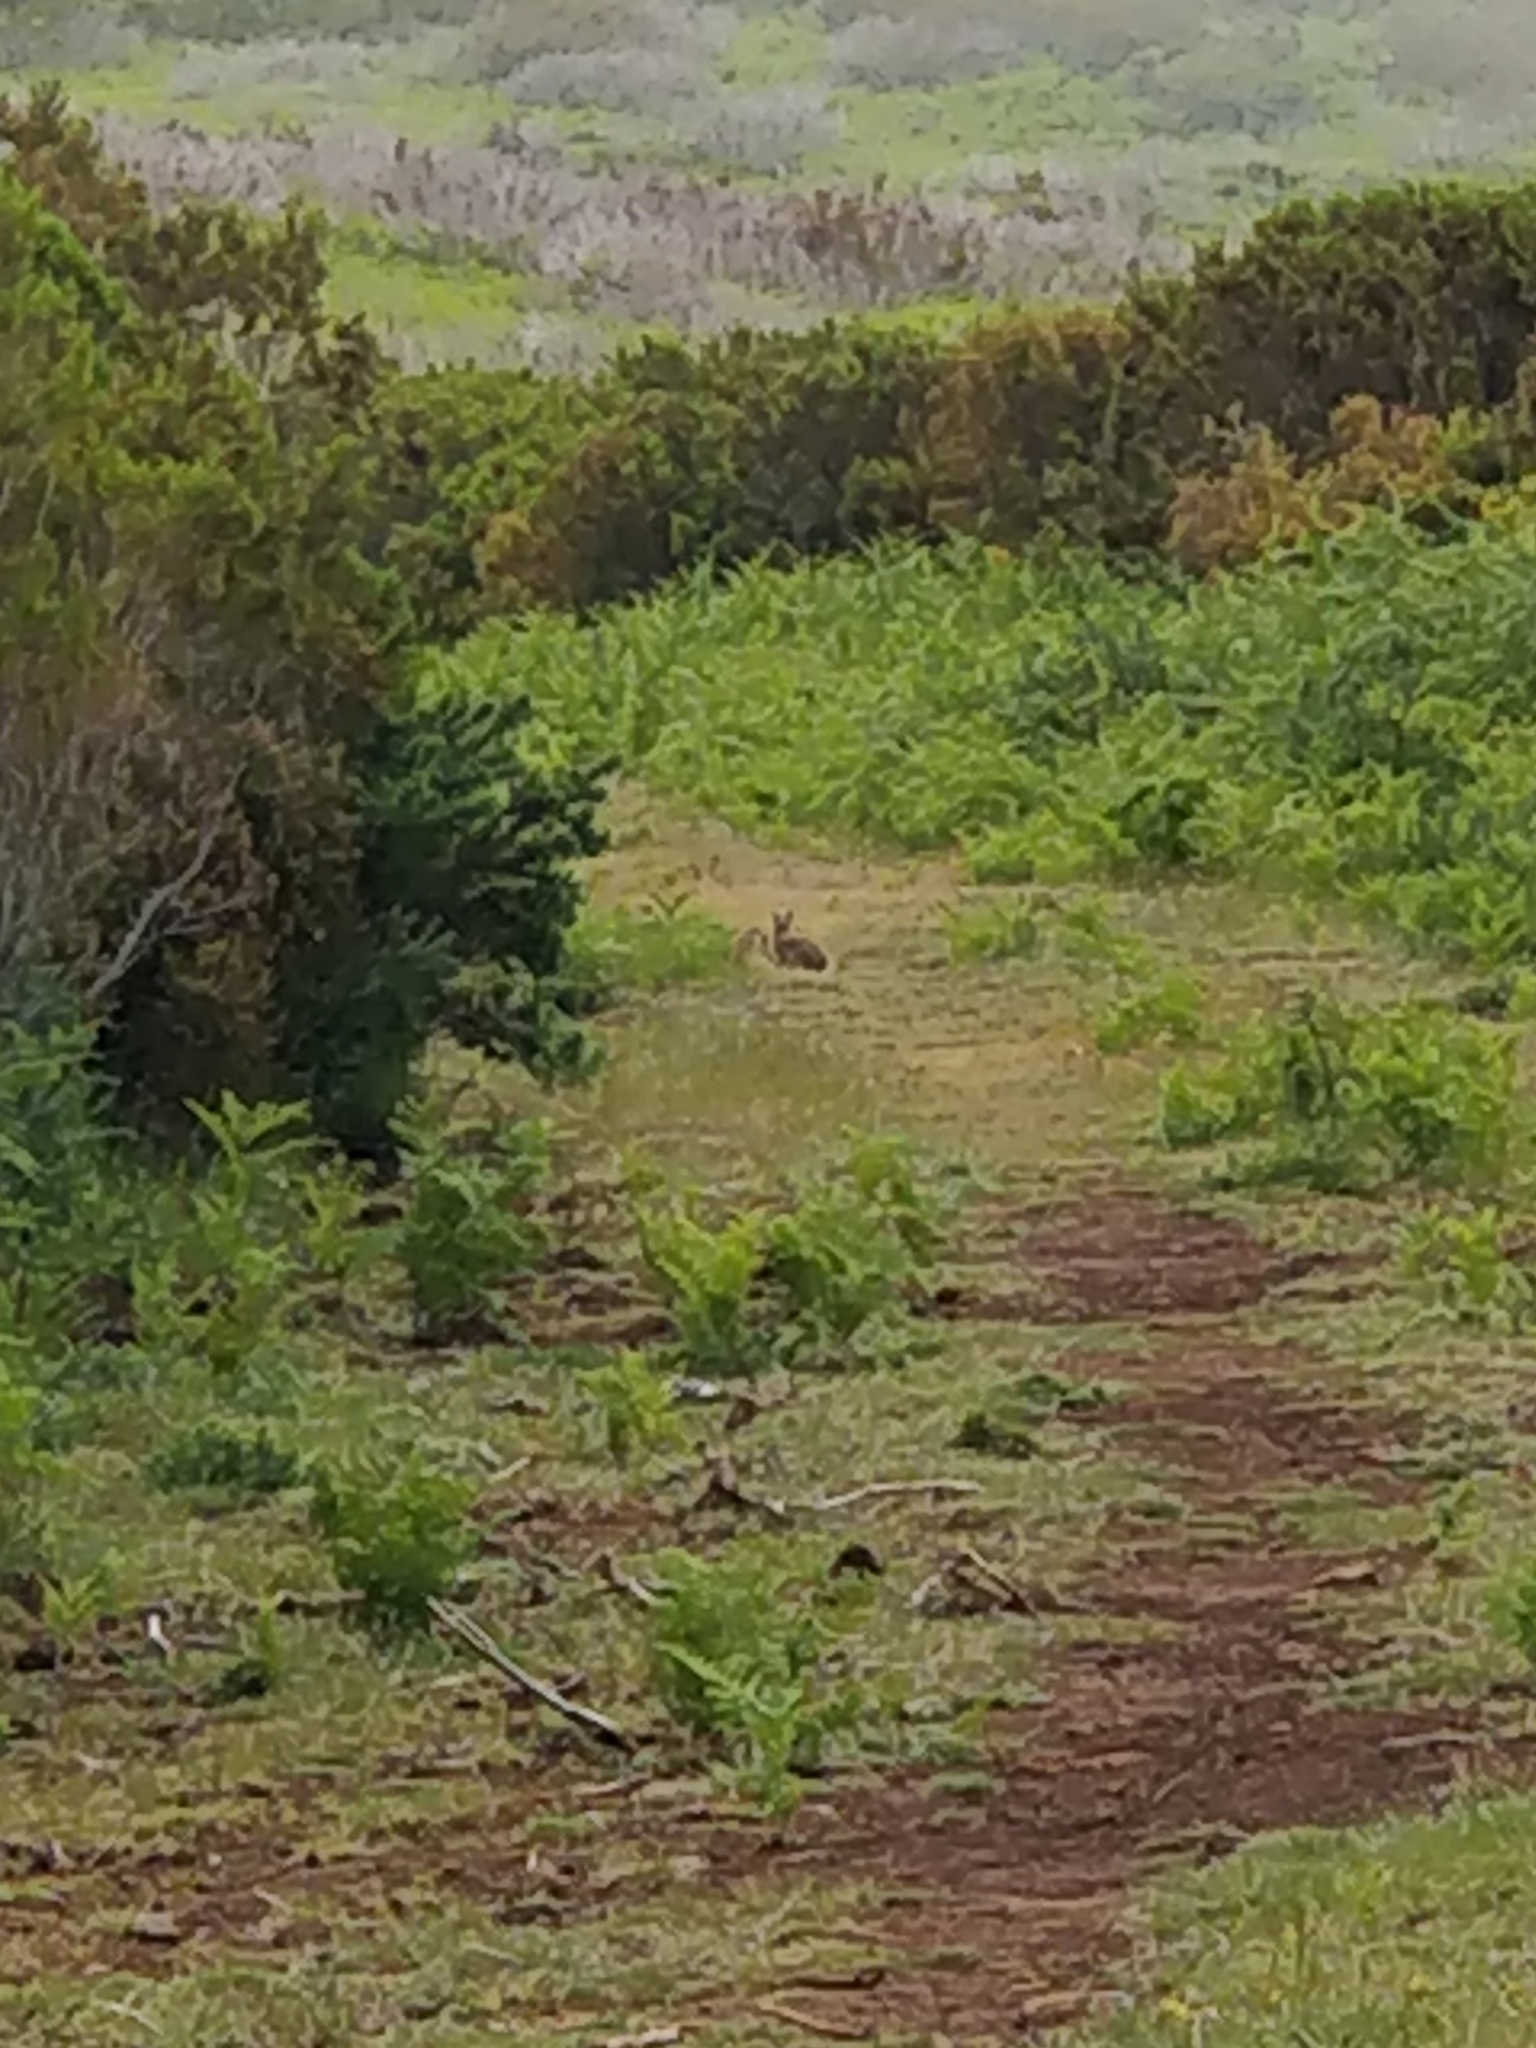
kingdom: Animalia
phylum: Chordata
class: Mammalia
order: Lagomorpha
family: Leporidae
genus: Oryctolagus
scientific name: Oryctolagus cuniculus
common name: European rabbit
